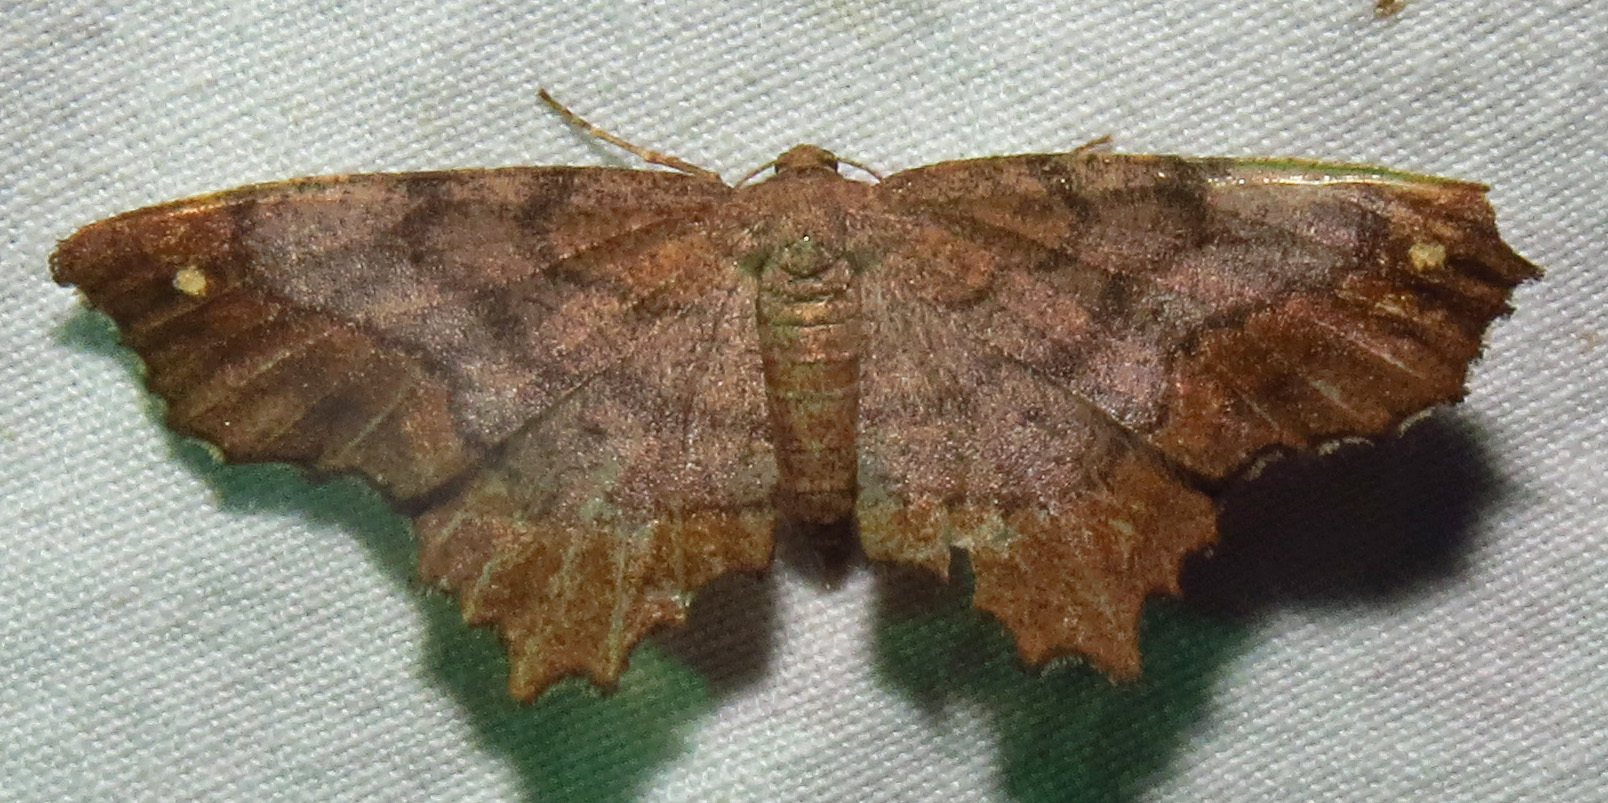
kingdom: Animalia
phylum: Arthropoda
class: Insecta
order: Lepidoptera
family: Geometridae
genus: Hypagyrtis
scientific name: Hypagyrtis unipunctata
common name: One-spotted variant
